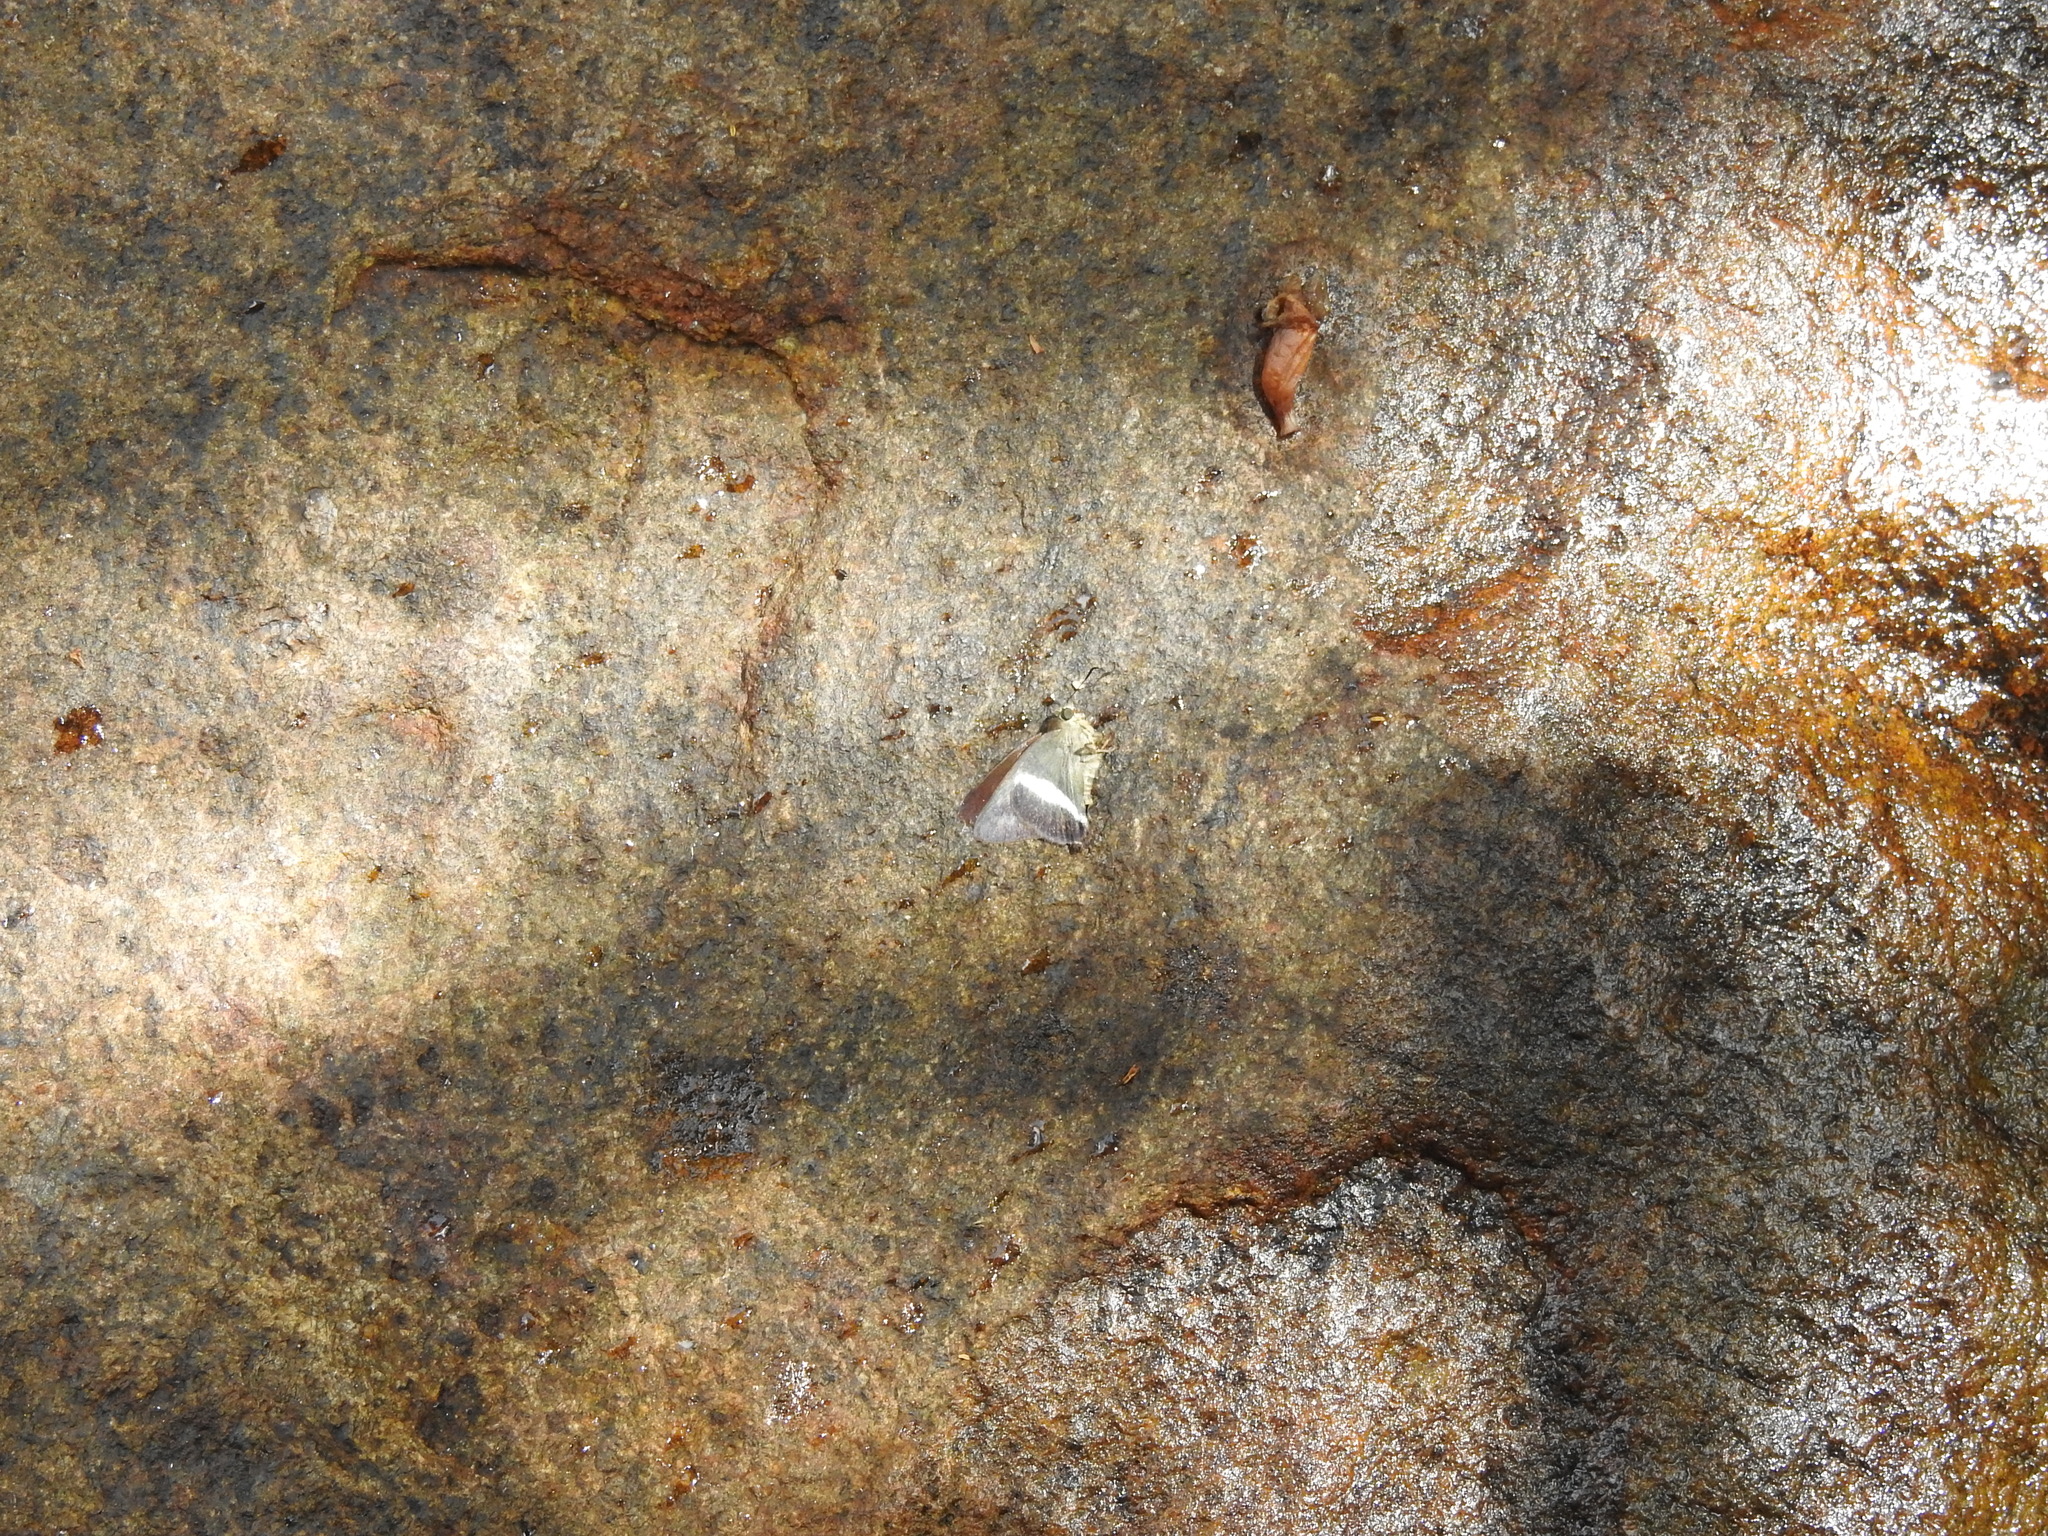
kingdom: Animalia
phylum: Arthropoda
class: Insecta
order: Lepidoptera
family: Hesperiidae
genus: Hasora
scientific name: Hasora taminatus
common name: White banded awl
